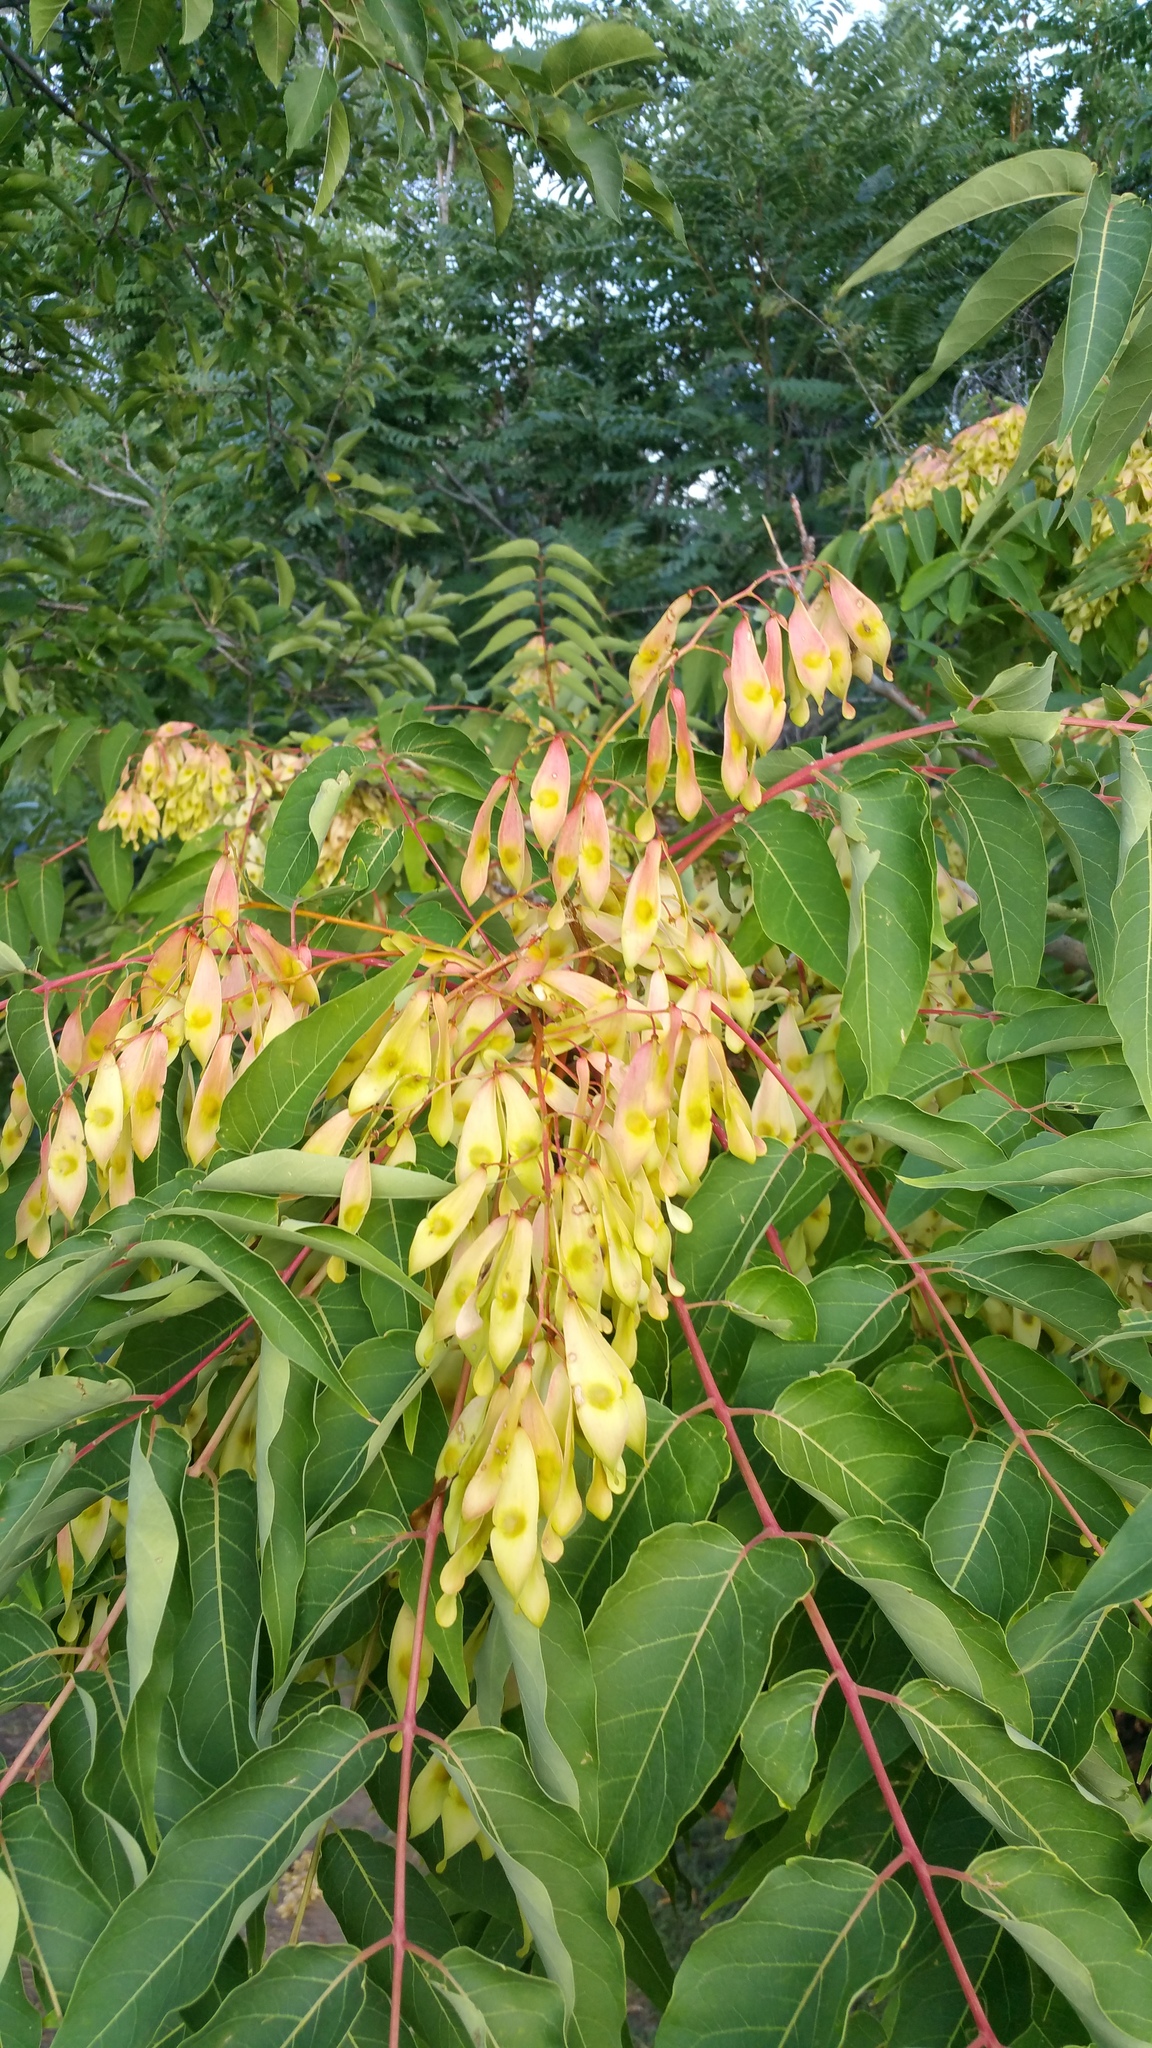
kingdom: Plantae
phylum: Tracheophyta
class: Magnoliopsida
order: Sapindales
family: Simaroubaceae
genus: Ailanthus
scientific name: Ailanthus altissima
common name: Tree-of-heaven
